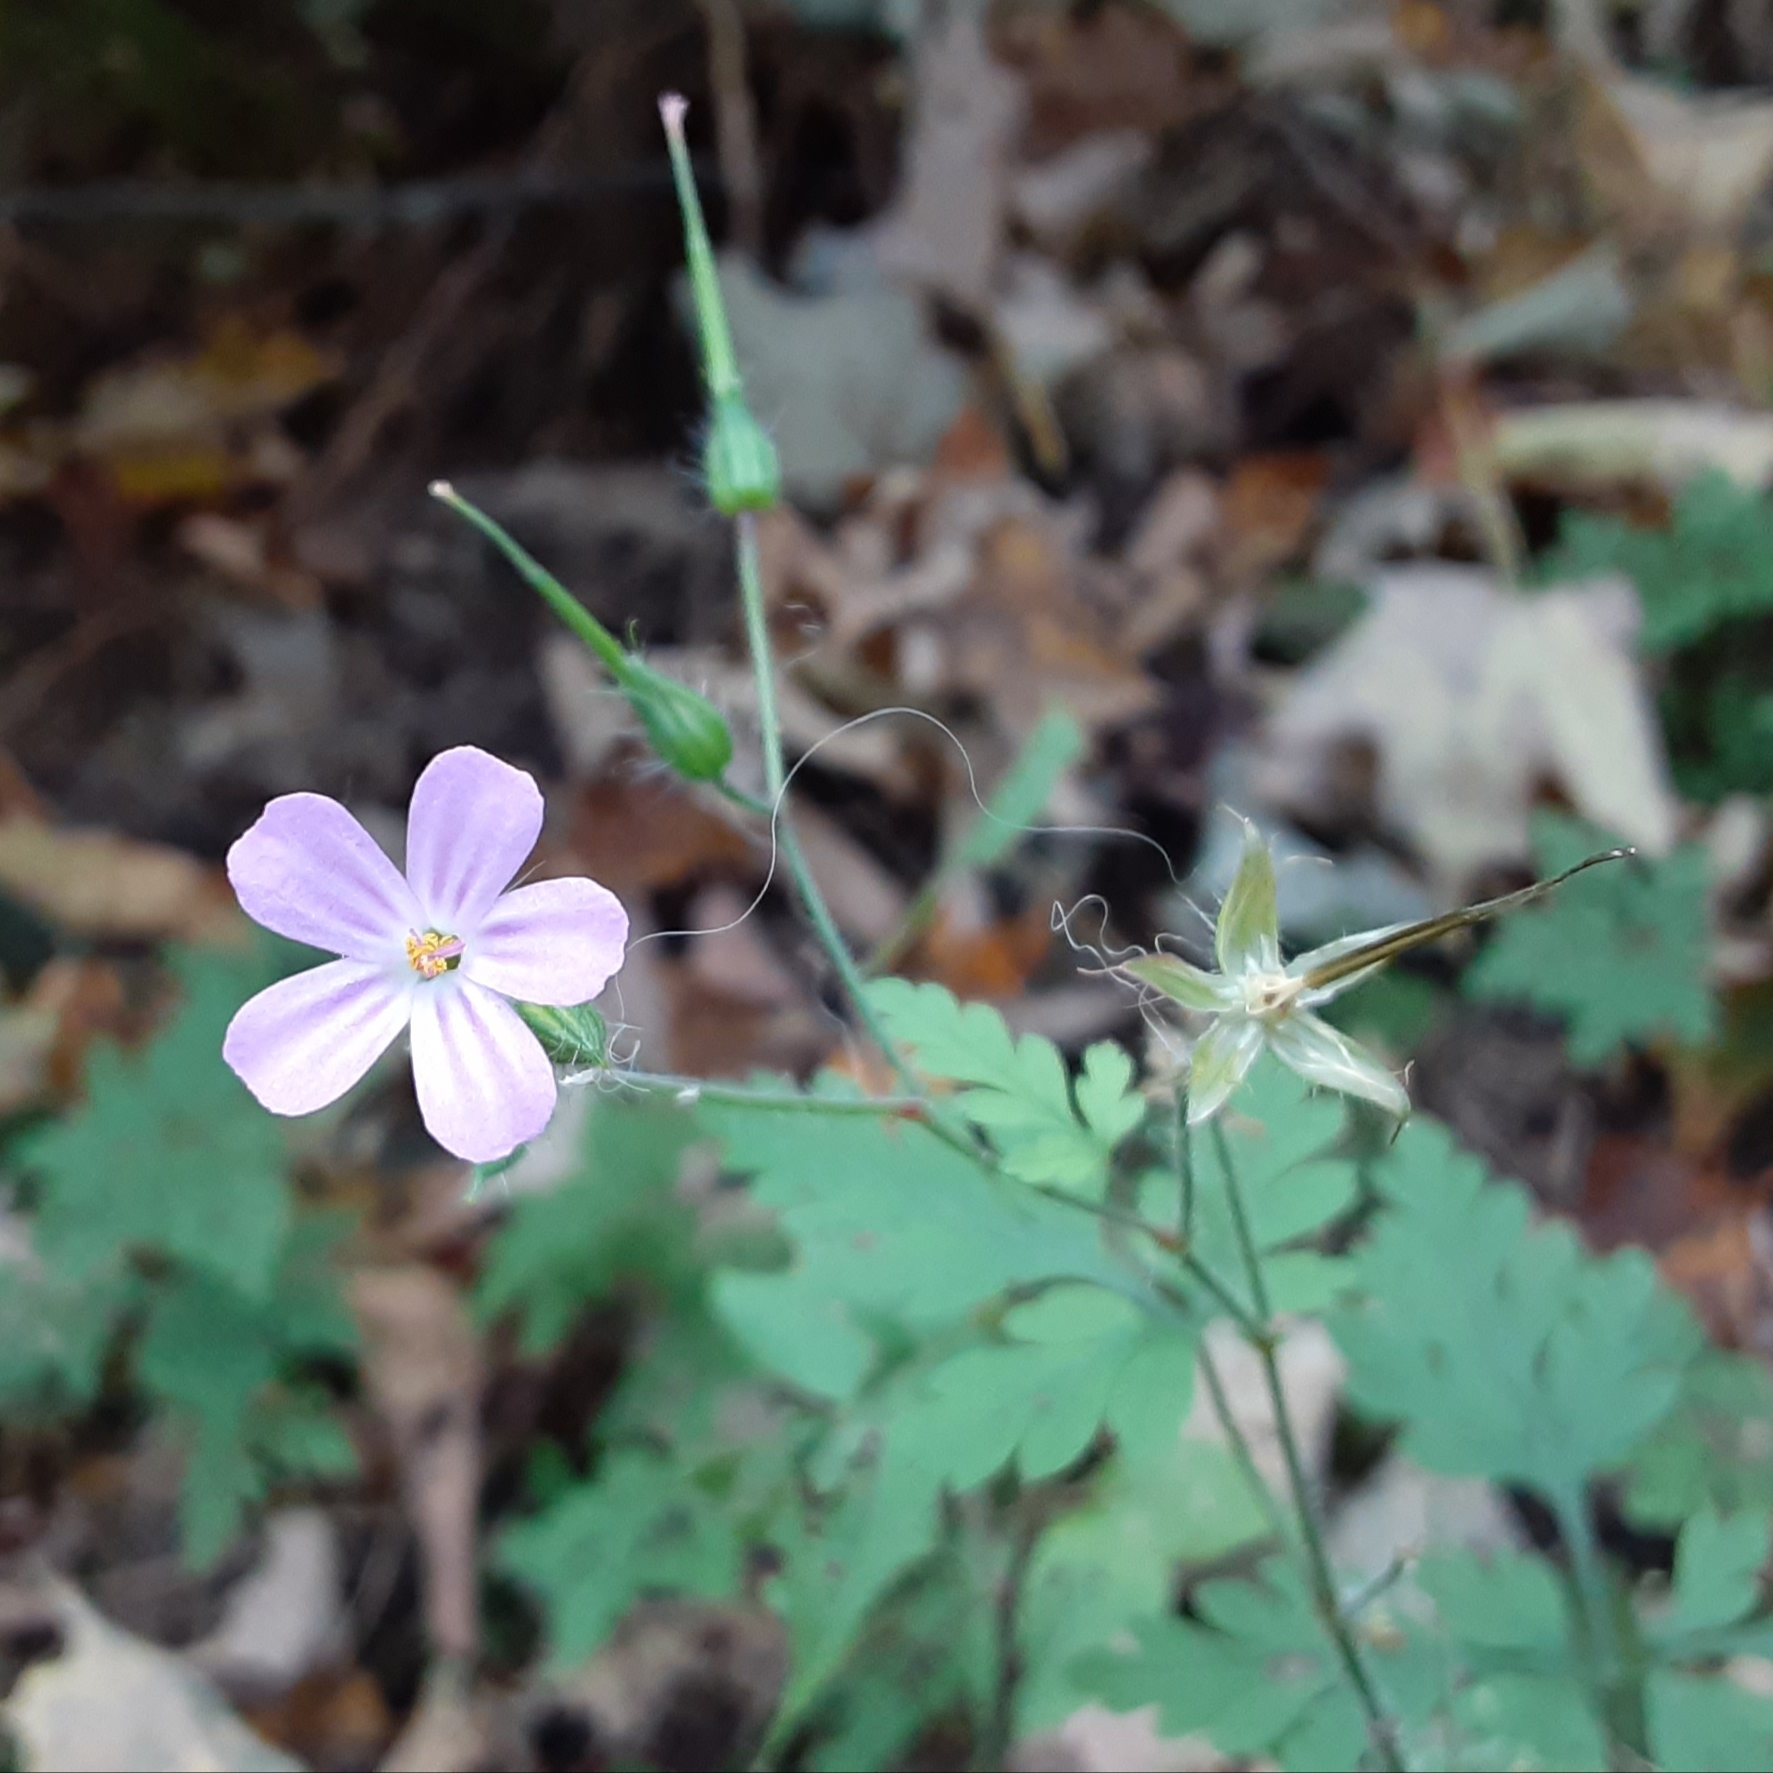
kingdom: Plantae
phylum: Tracheophyta
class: Magnoliopsida
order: Geraniales
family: Geraniaceae
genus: Geranium
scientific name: Geranium robertianum
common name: Herb-robert
